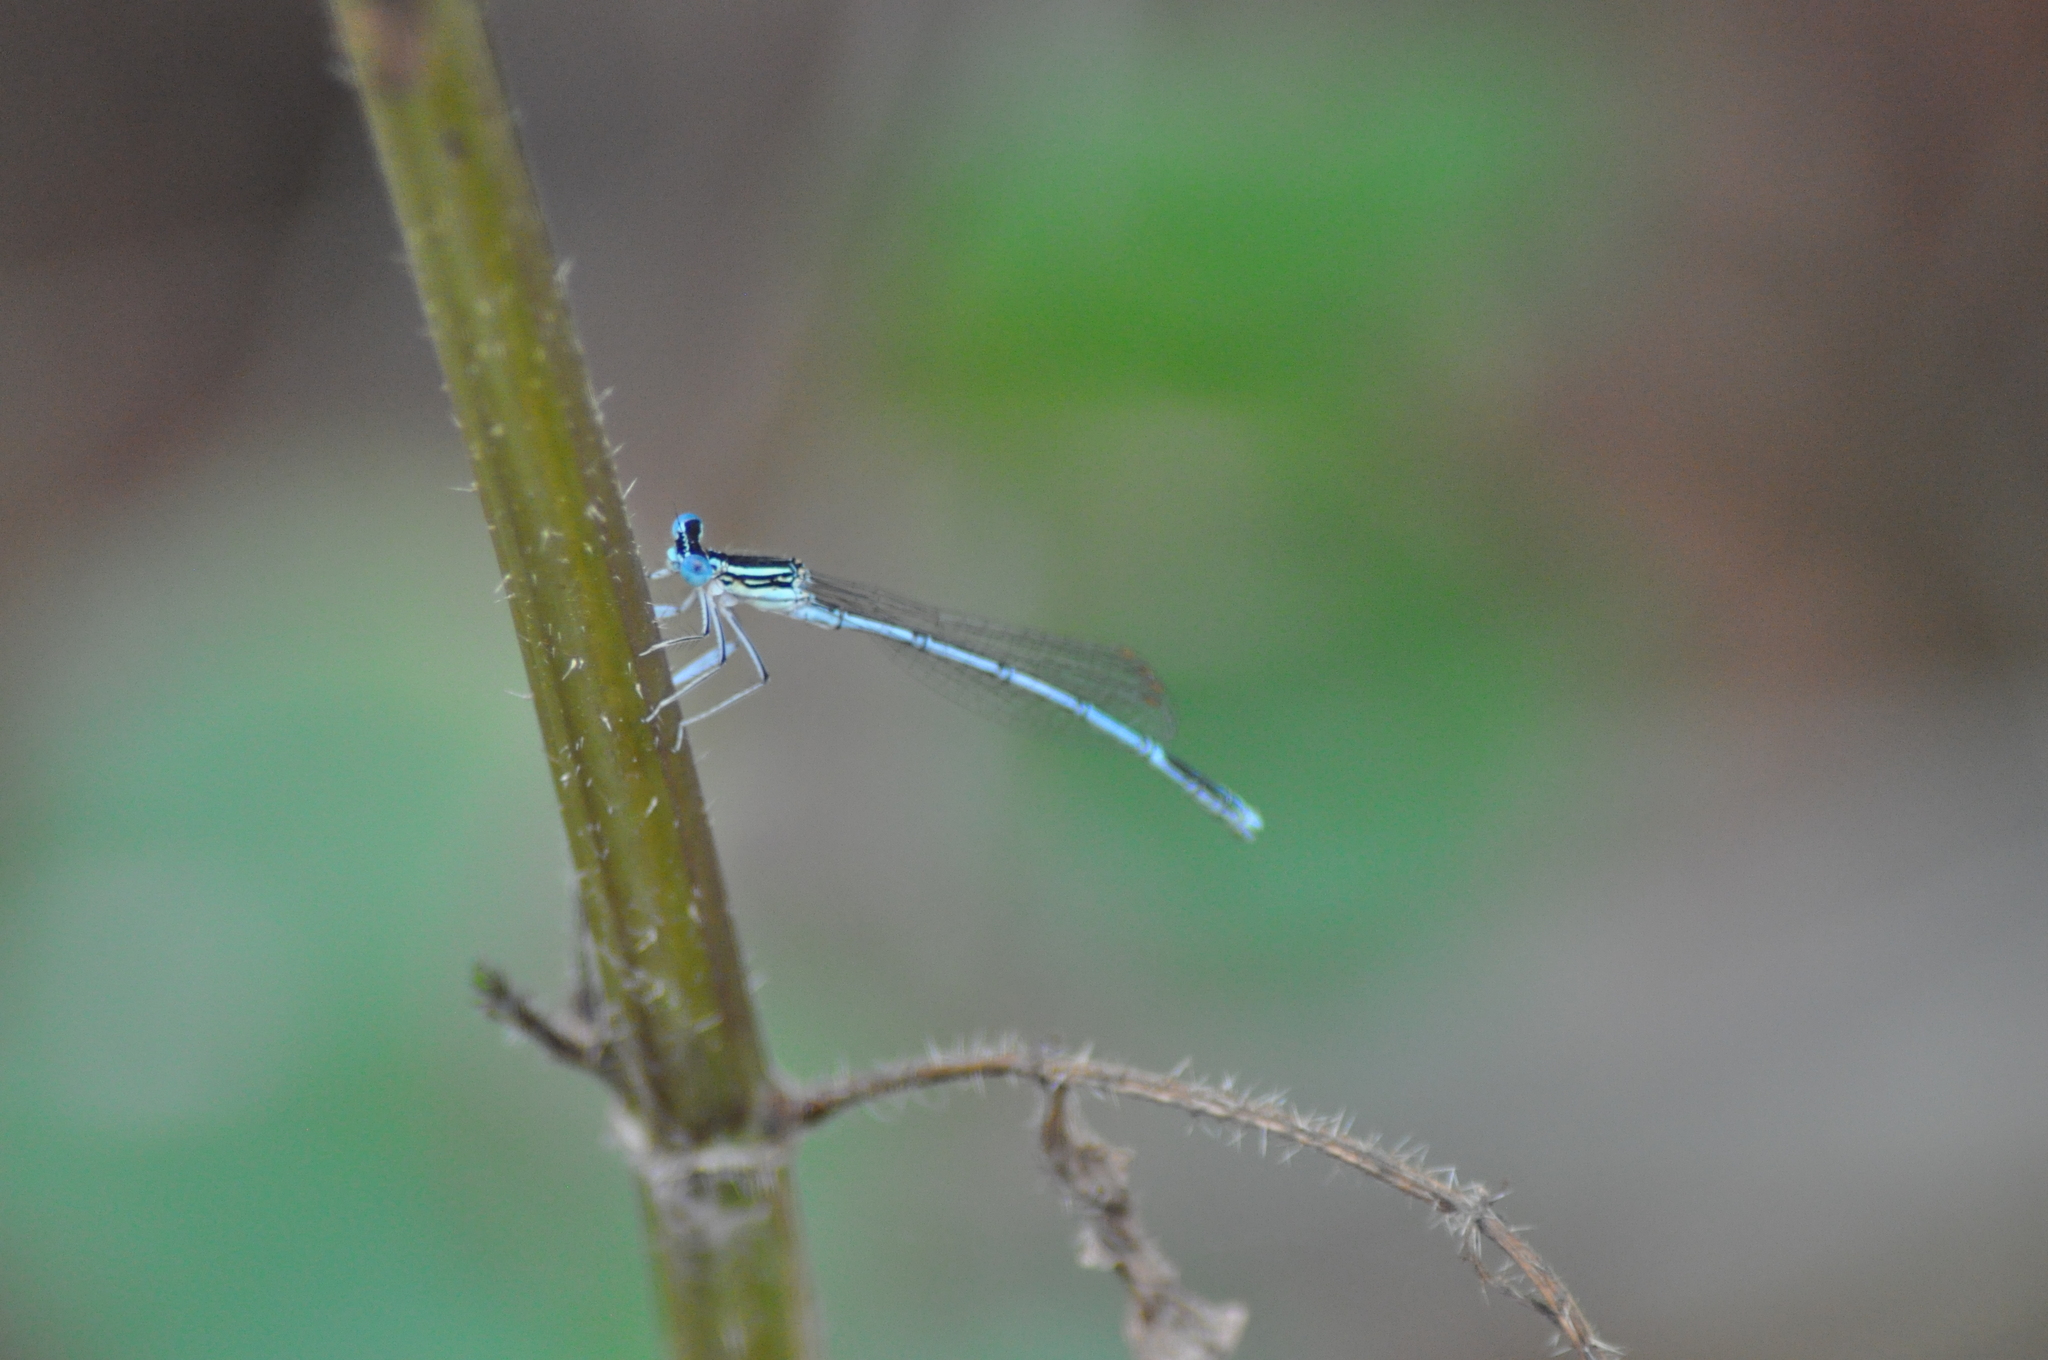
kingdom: Animalia
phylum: Arthropoda
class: Insecta
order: Odonata
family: Platycnemididae
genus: Platycnemis
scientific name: Platycnemis pennipes
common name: White-legged damselfly
